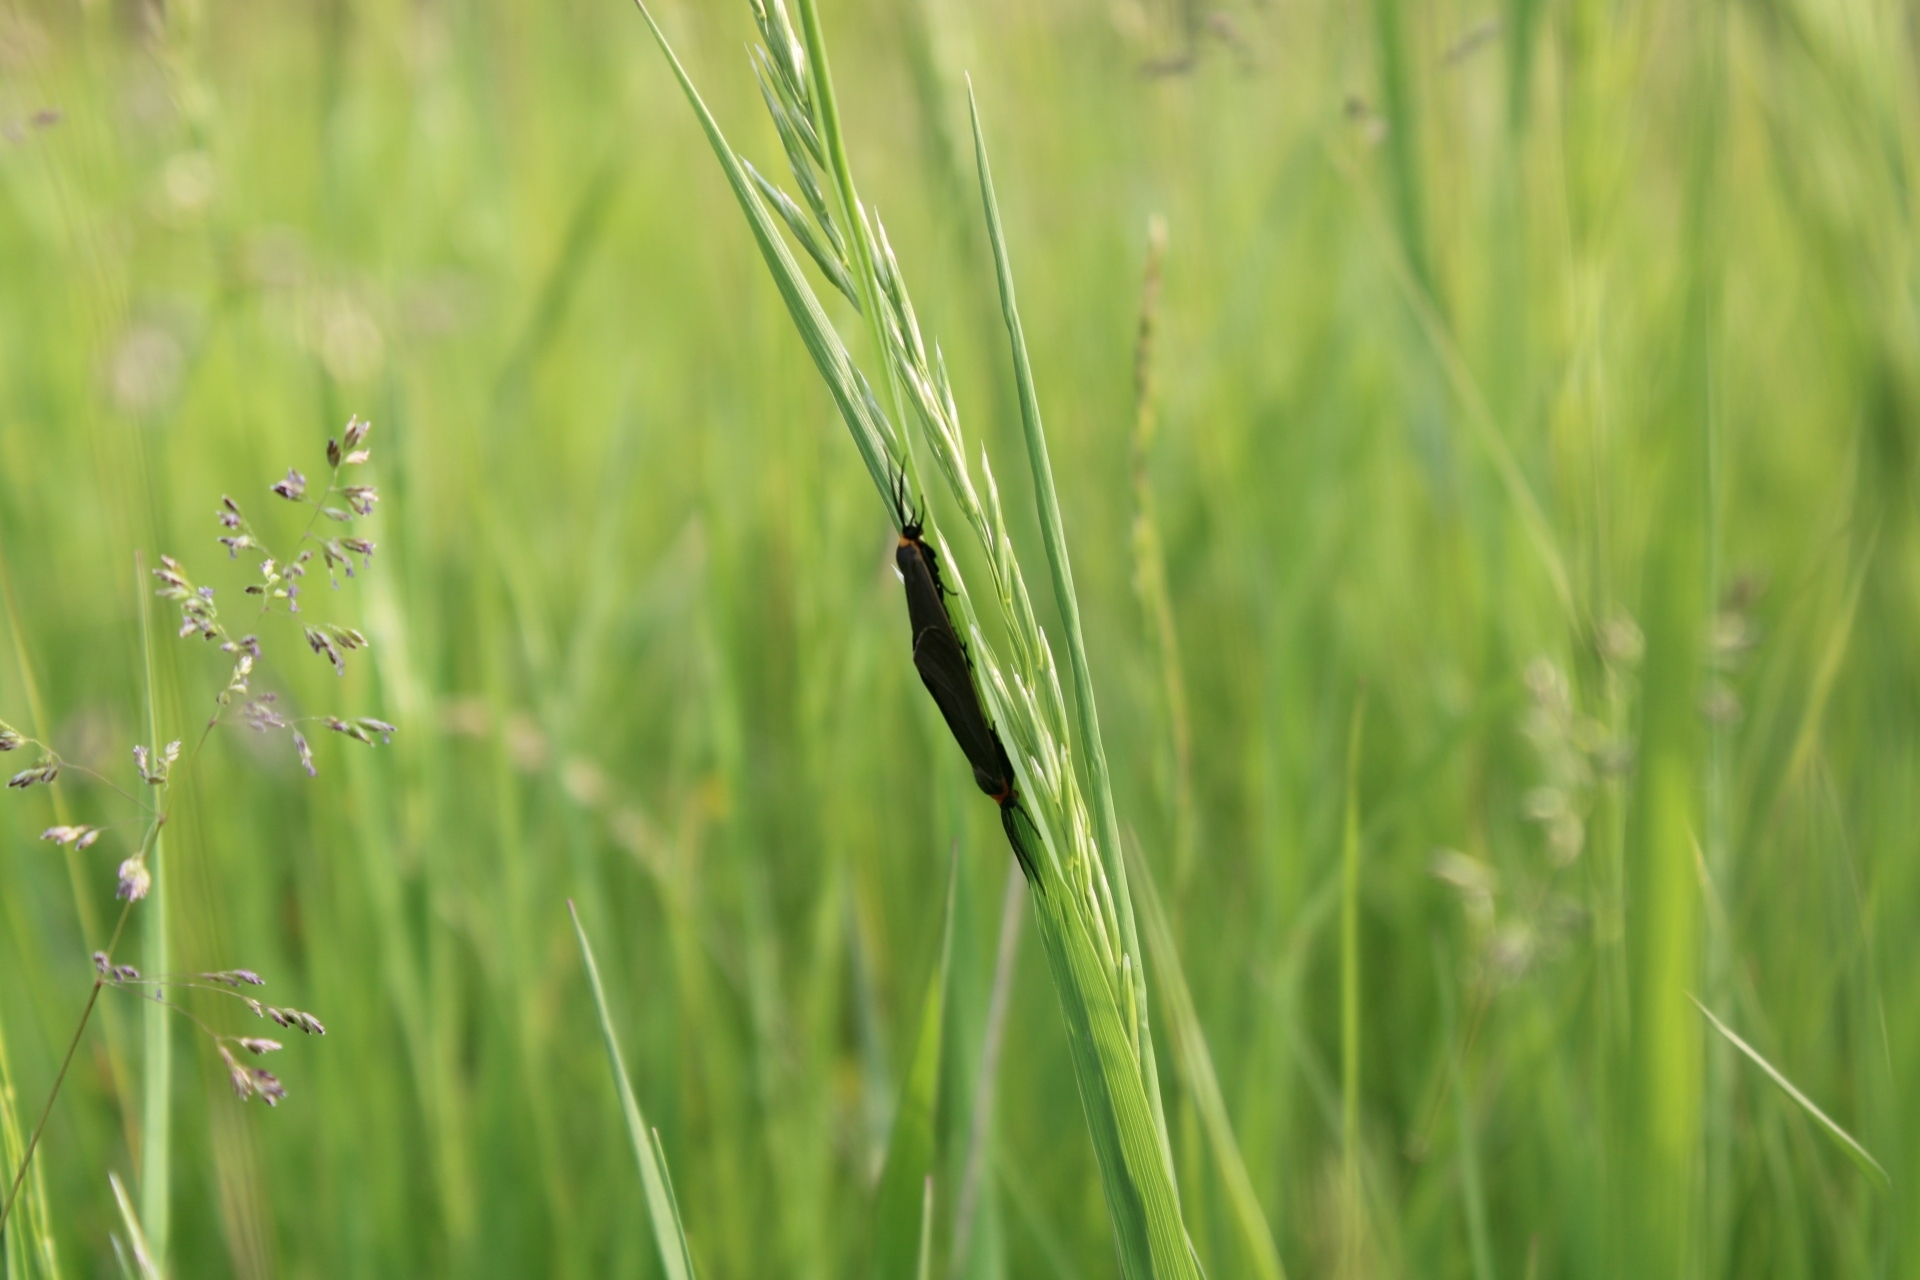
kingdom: Animalia
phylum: Arthropoda
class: Insecta
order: Lepidoptera
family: Erebidae
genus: Cisseps
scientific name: Cisseps fulvicollis
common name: Yellow-collared scape moth
